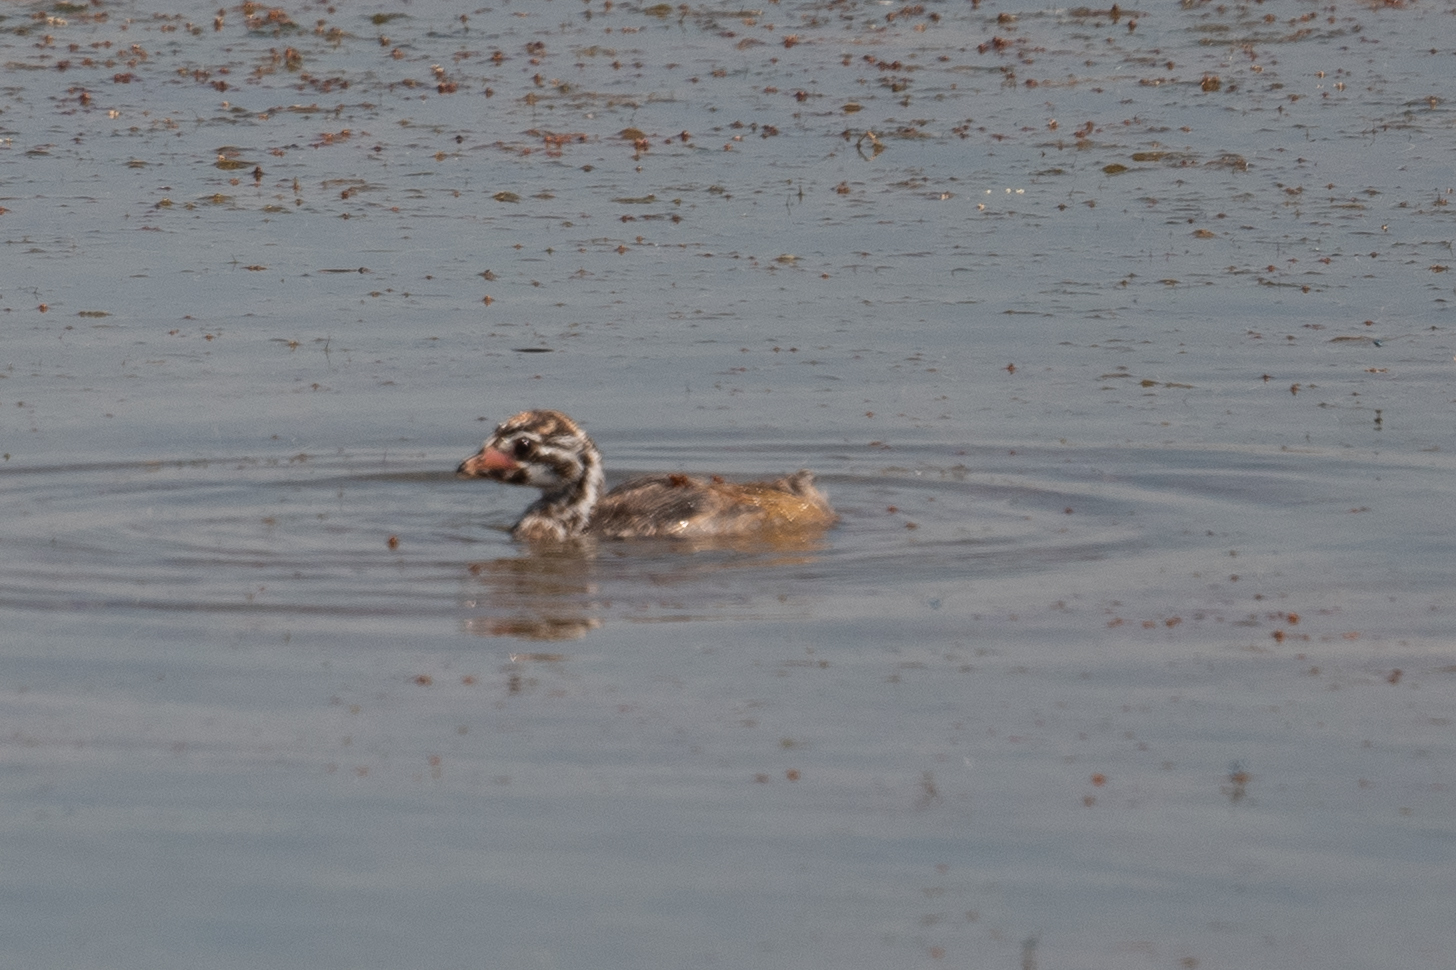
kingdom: Animalia
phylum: Chordata
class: Aves
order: Podicipediformes
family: Podicipedidae
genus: Podilymbus
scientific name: Podilymbus podiceps
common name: Pied-billed grebe
